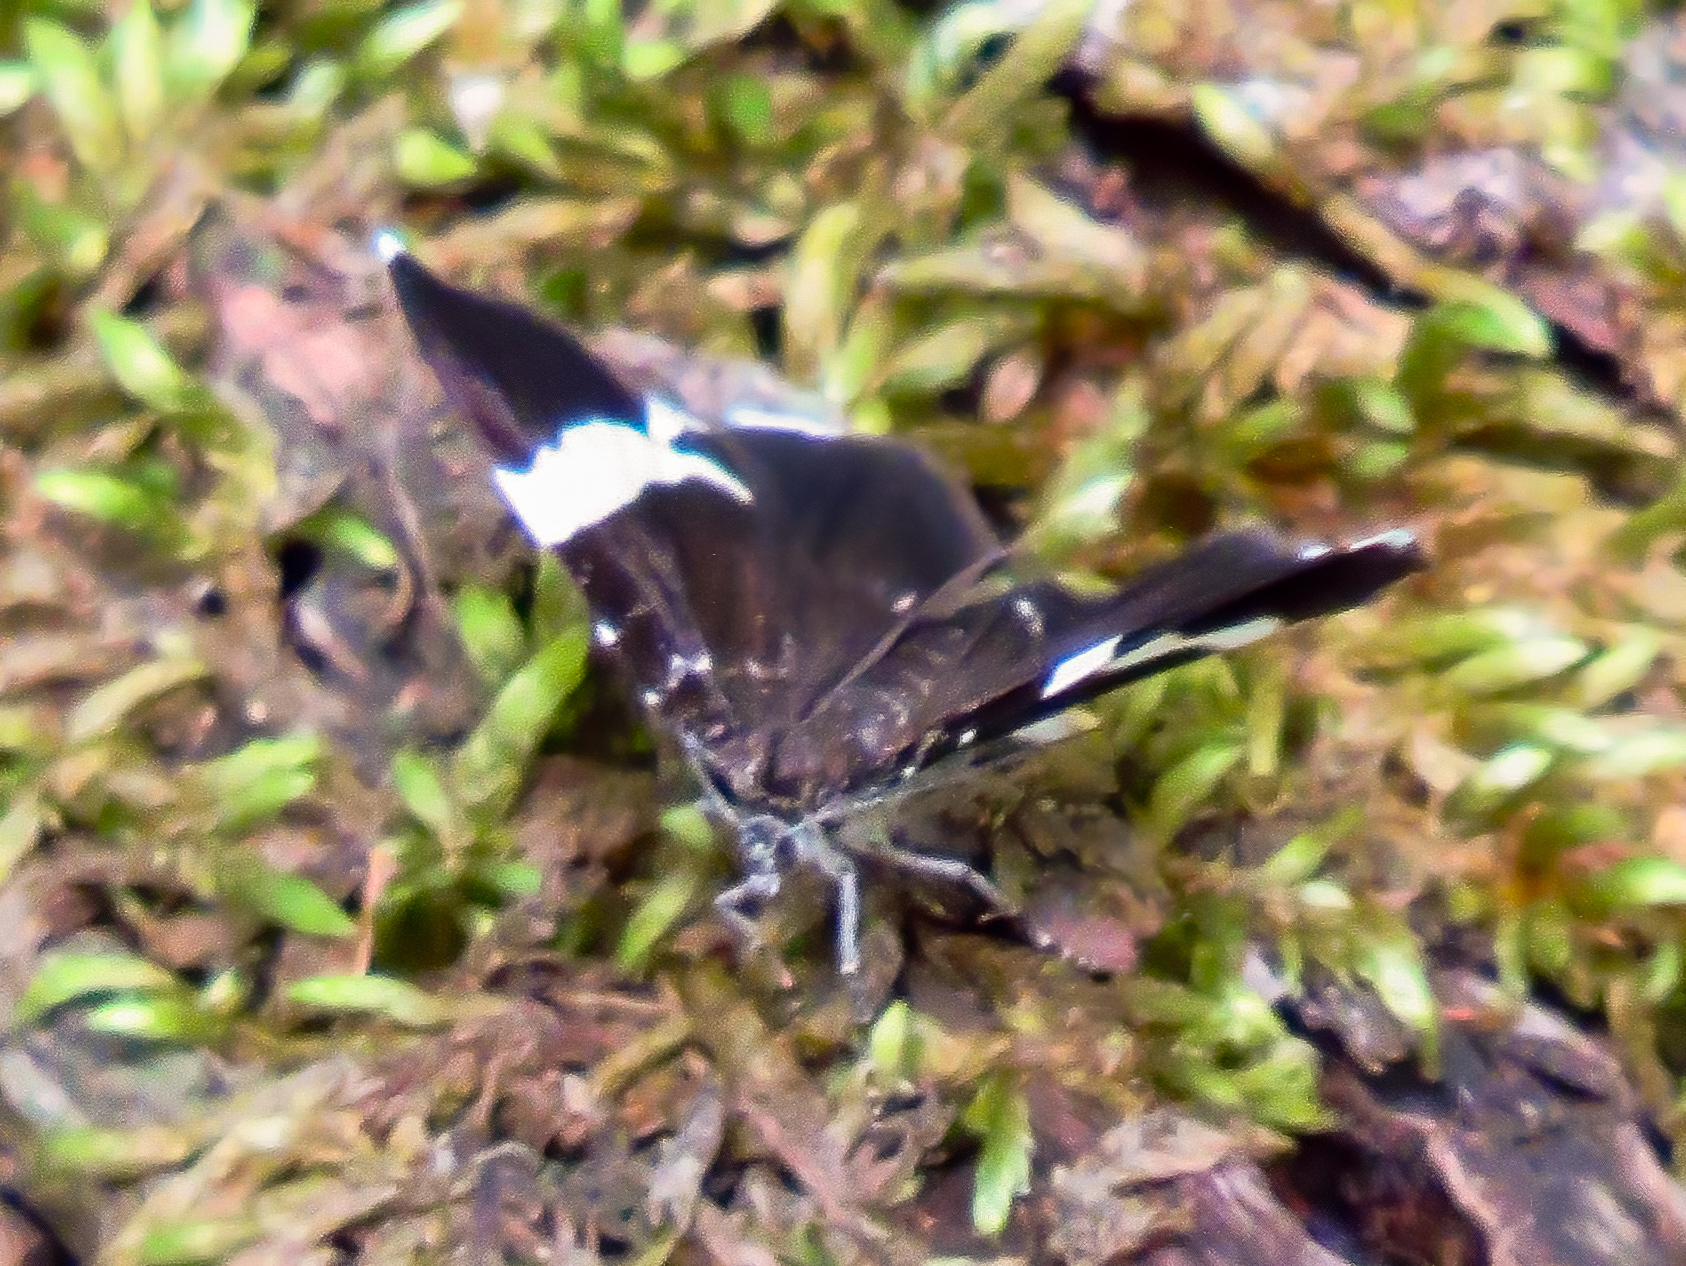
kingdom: Animalia
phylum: Arthropoda
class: Insecta
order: Lepidoptera
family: Geometridae
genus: Trichodezia
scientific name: Trichodezia albovittata
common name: White striped black
